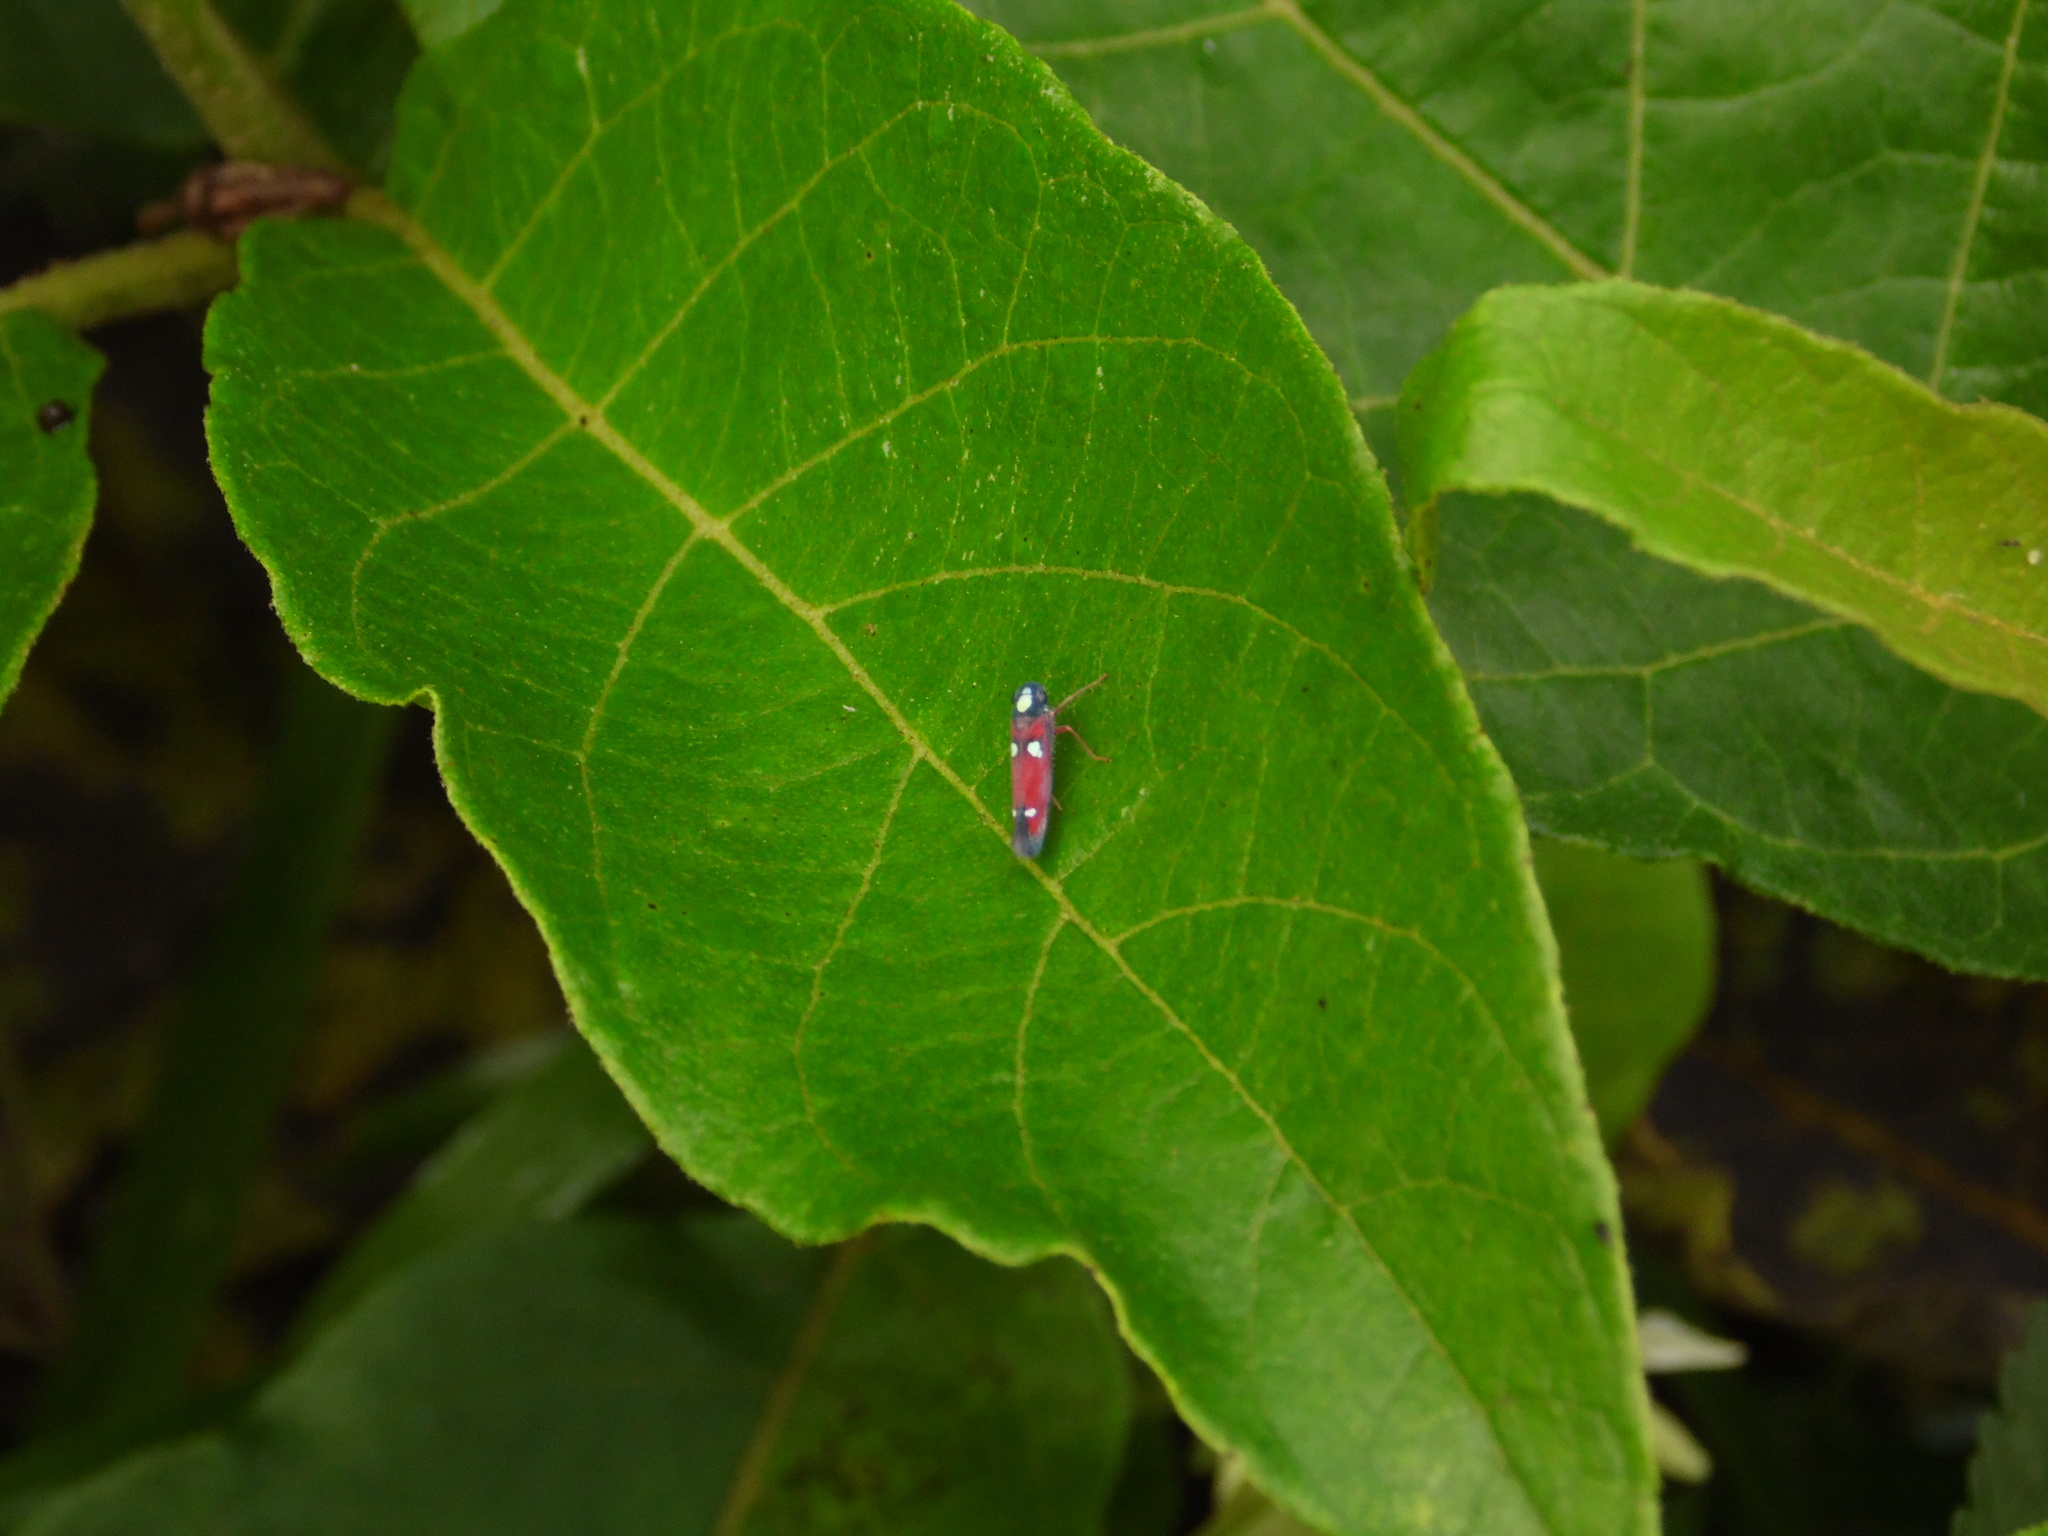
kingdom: Animalia
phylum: Arthropoda
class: Insecta
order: Hemiptera
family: Cicadellidae
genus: Erythrogonia
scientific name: Erythrogonia hertha
